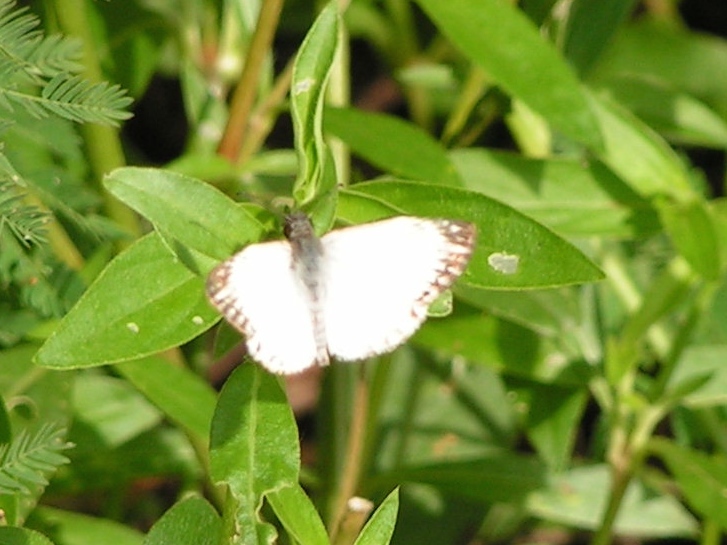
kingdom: Animalia
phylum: Arthropoda
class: Insecta
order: Lepidoptera
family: Hesperiidae
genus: Heliopetes
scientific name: Heliopetes laviana
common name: Laviana white-skipper
